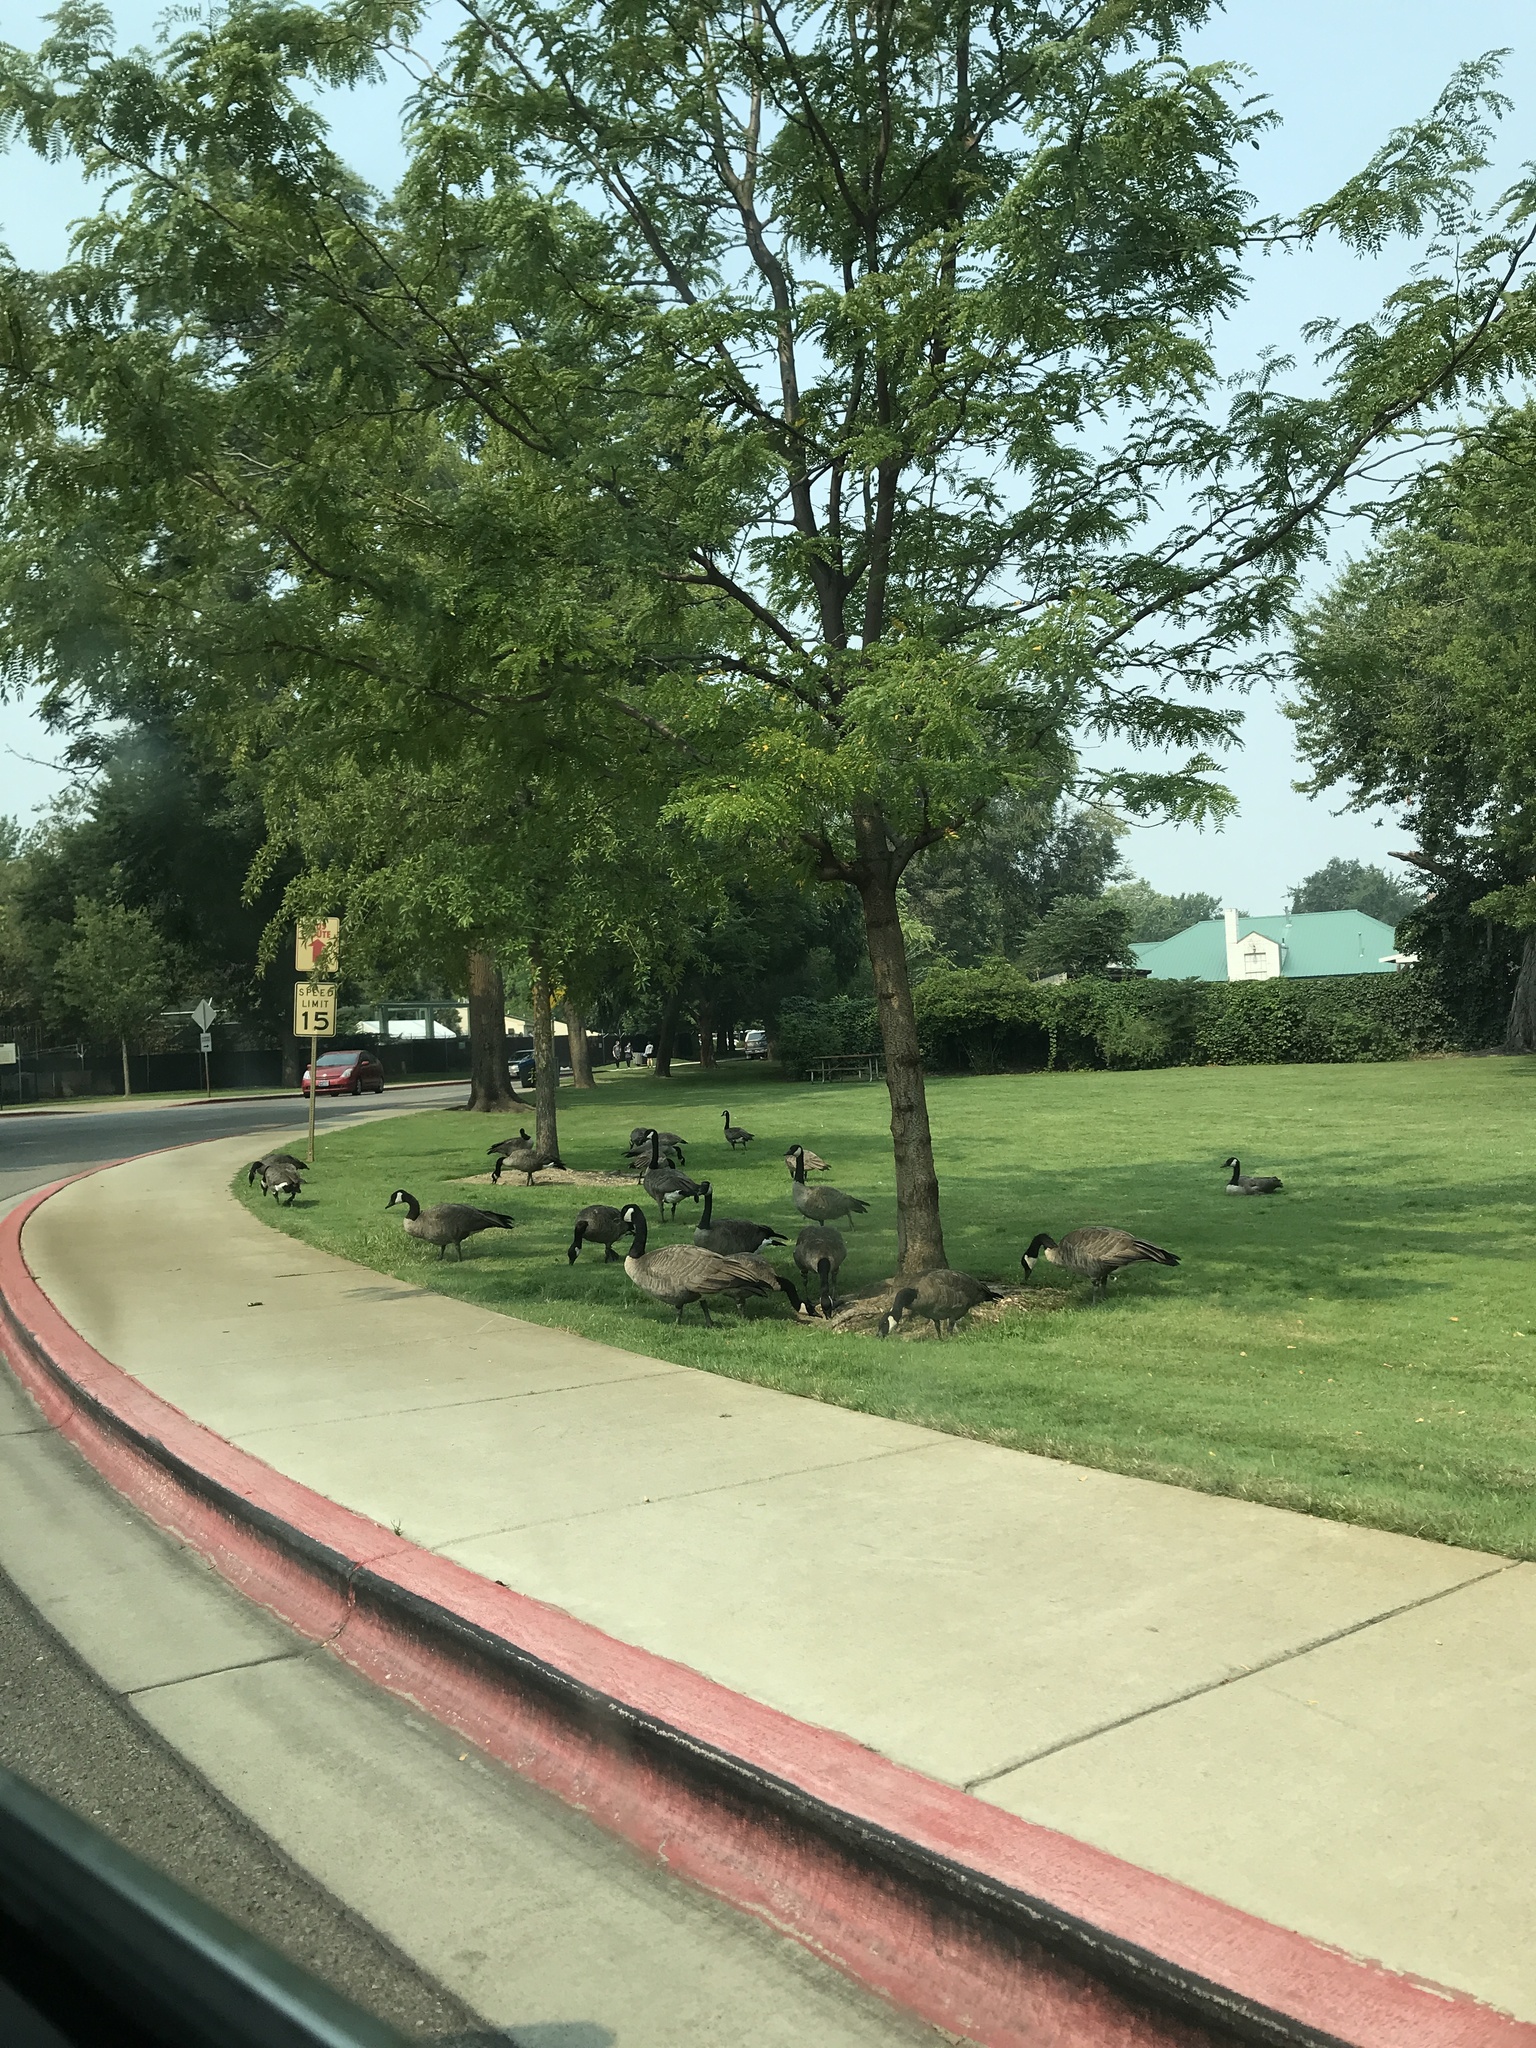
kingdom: Animalia
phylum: Chordata
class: Aves
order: Anseriformes
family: Anatidae
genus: Branta
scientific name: Branta canadensis
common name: Canada goose
